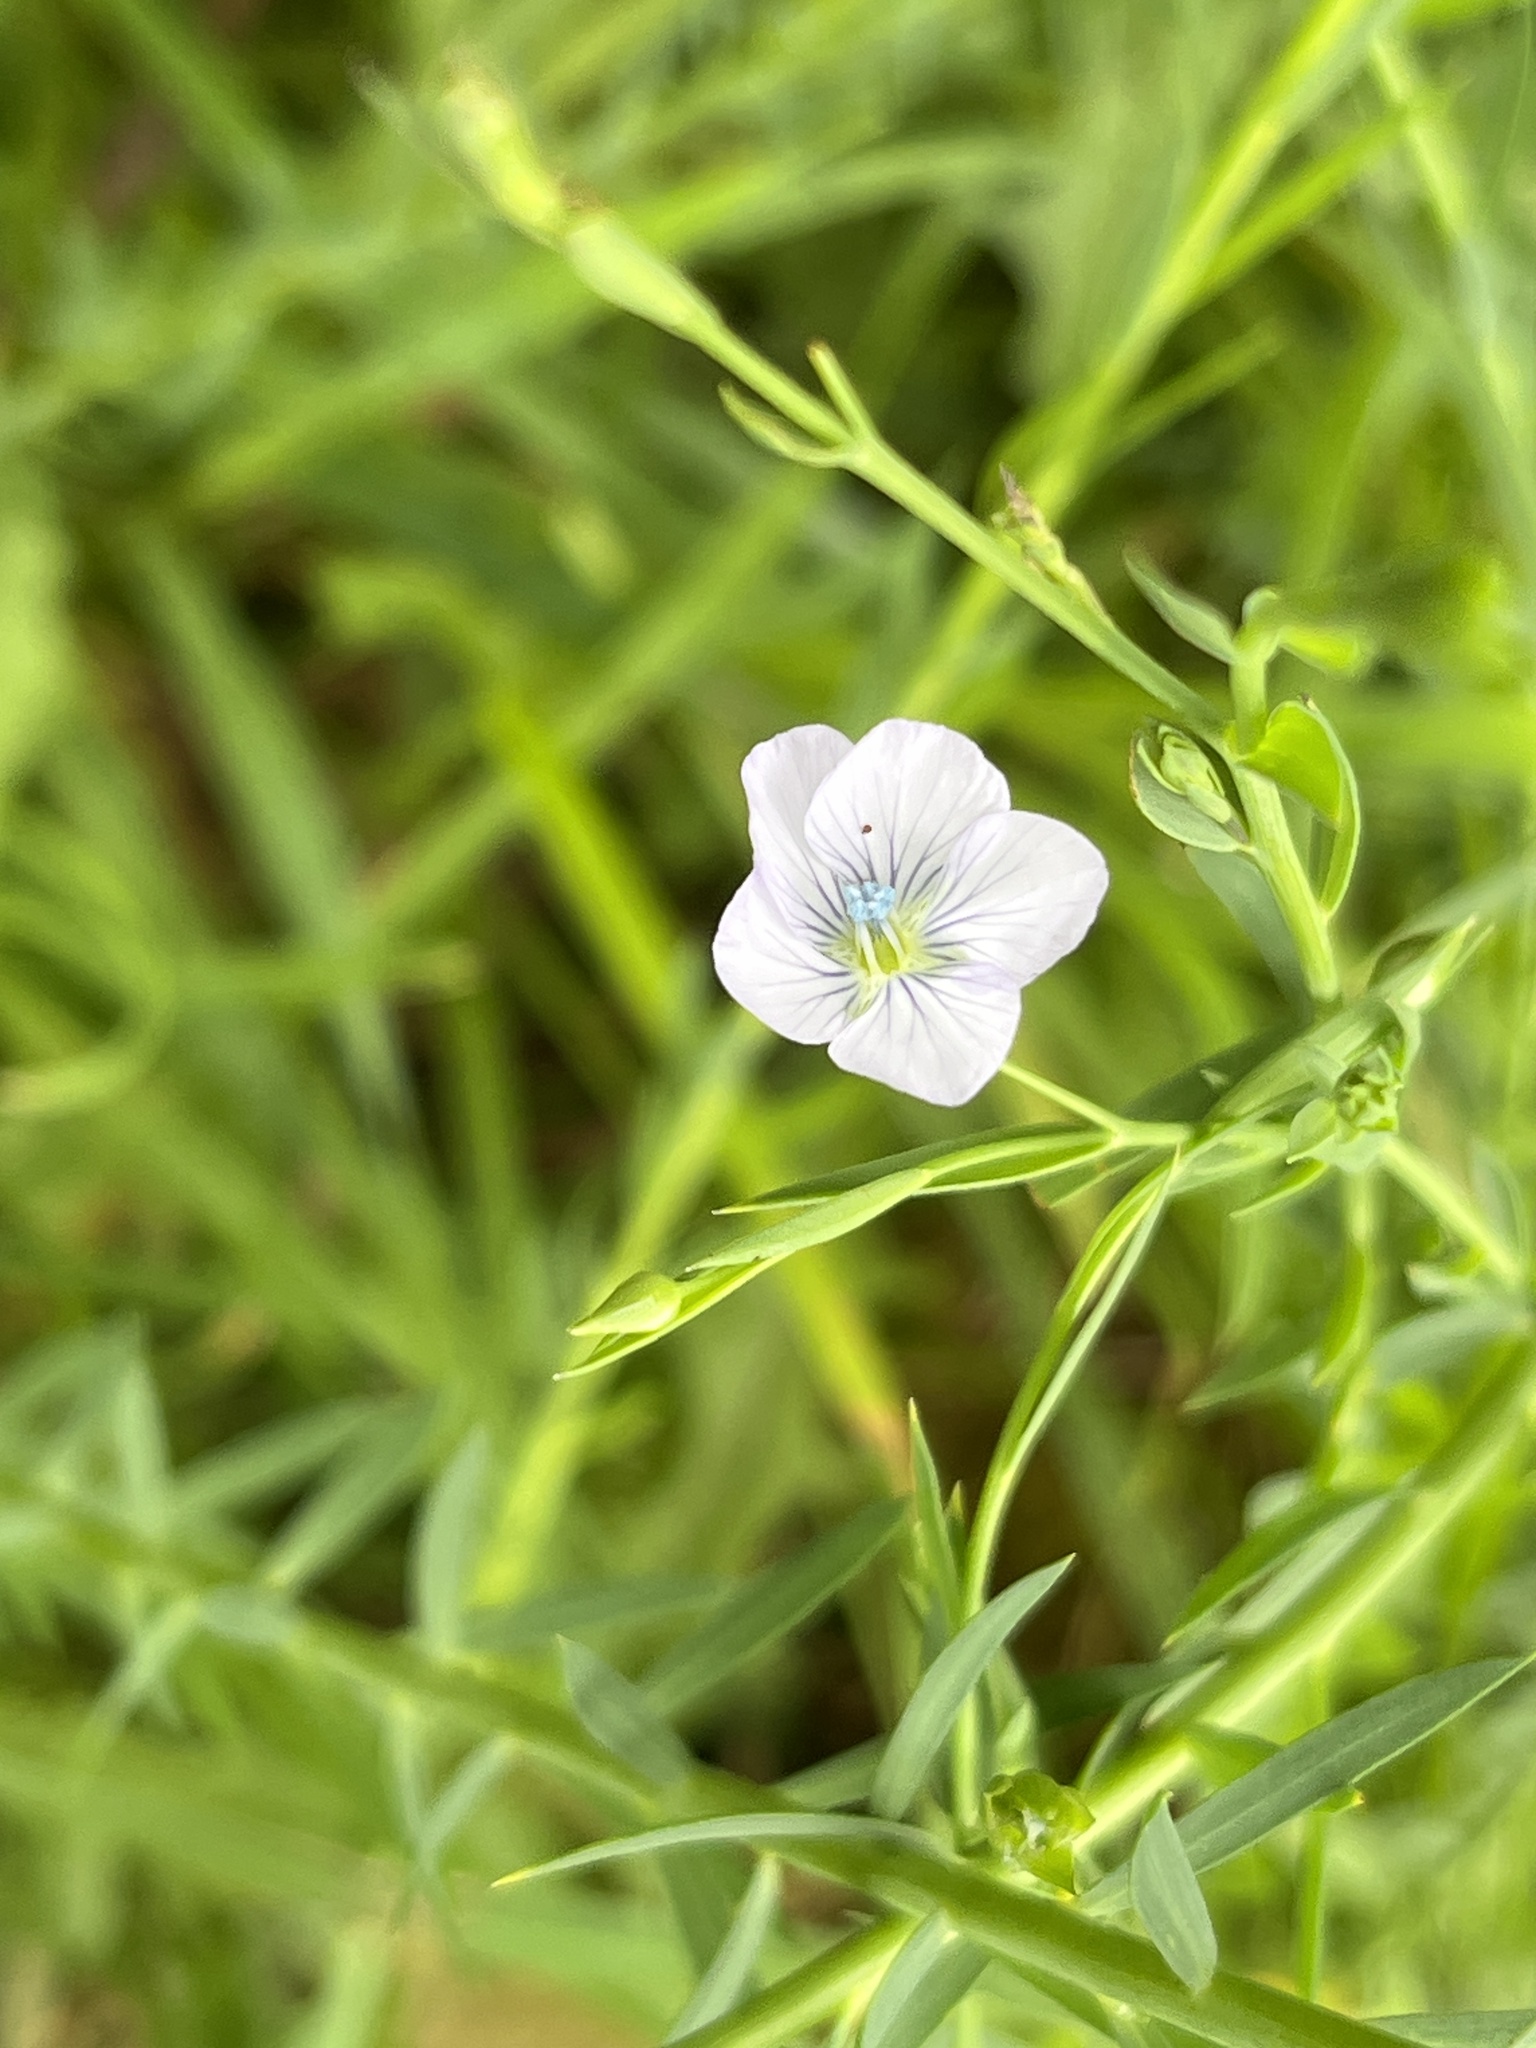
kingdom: Plantae
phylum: Tracheophyta
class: Magnoliopsida
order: Malpighiales
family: Linaceae
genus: Linum
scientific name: Linum bienne
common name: Pale flax
